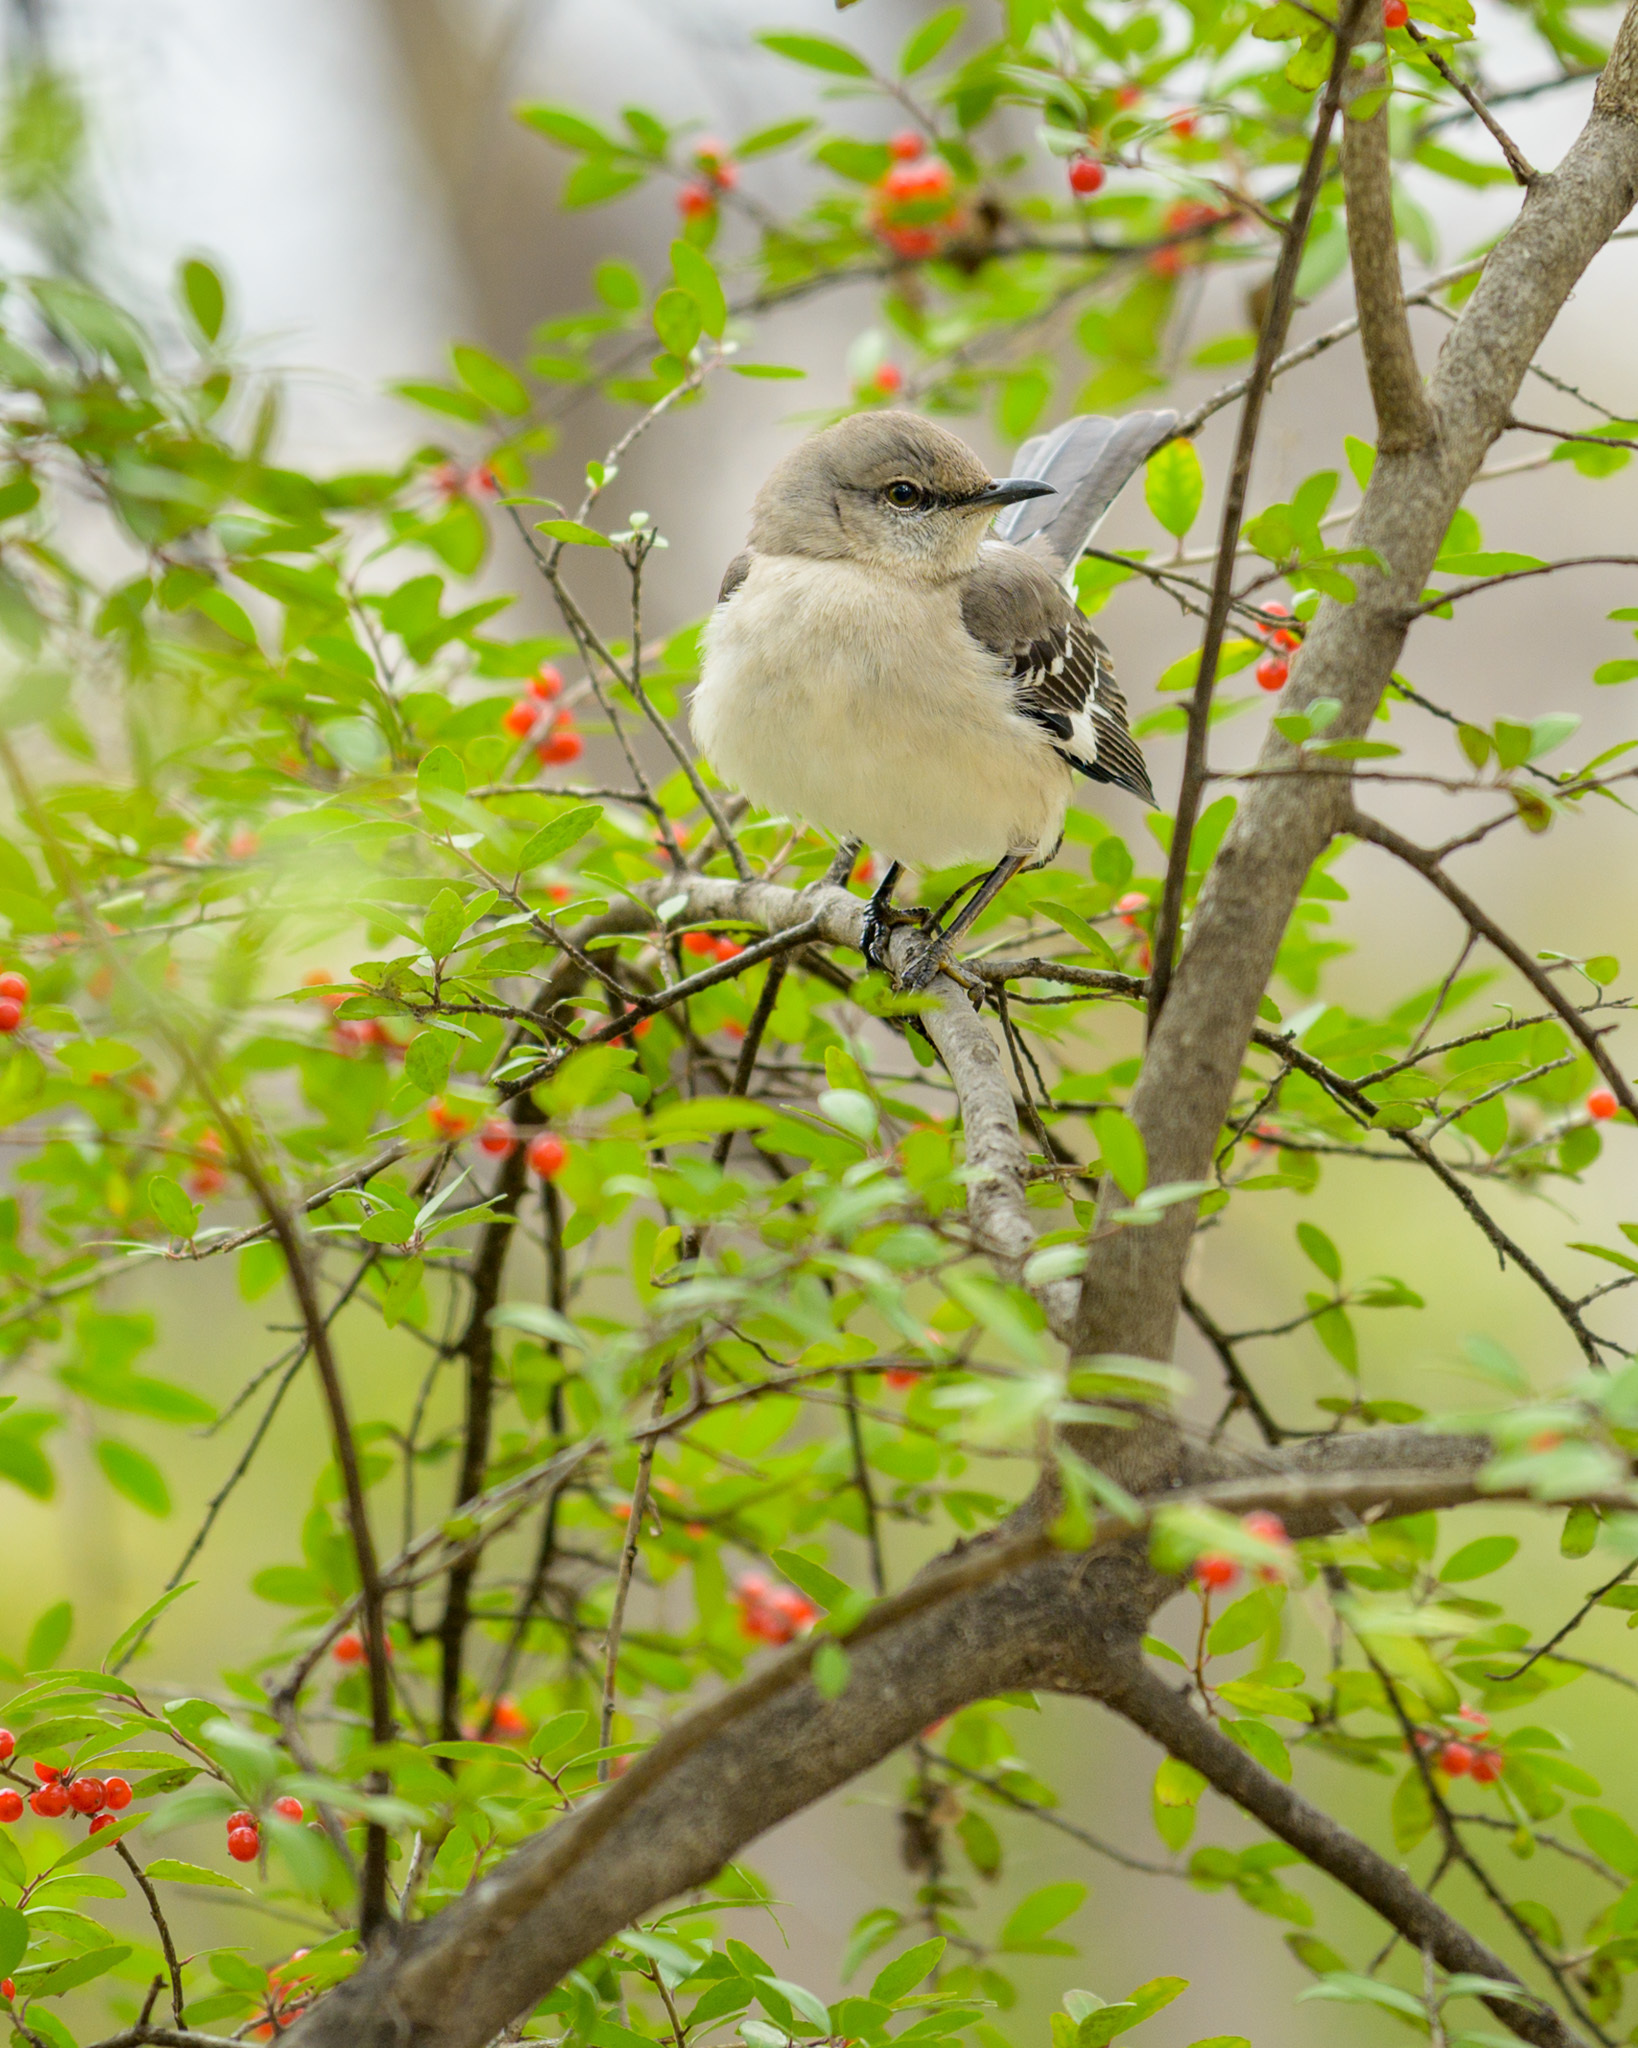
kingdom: Animalia
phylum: Chordata
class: Aves
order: Passeriformes
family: Mimidae
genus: Mimus
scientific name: Mimus polyglottos
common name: Northern mockingbird
